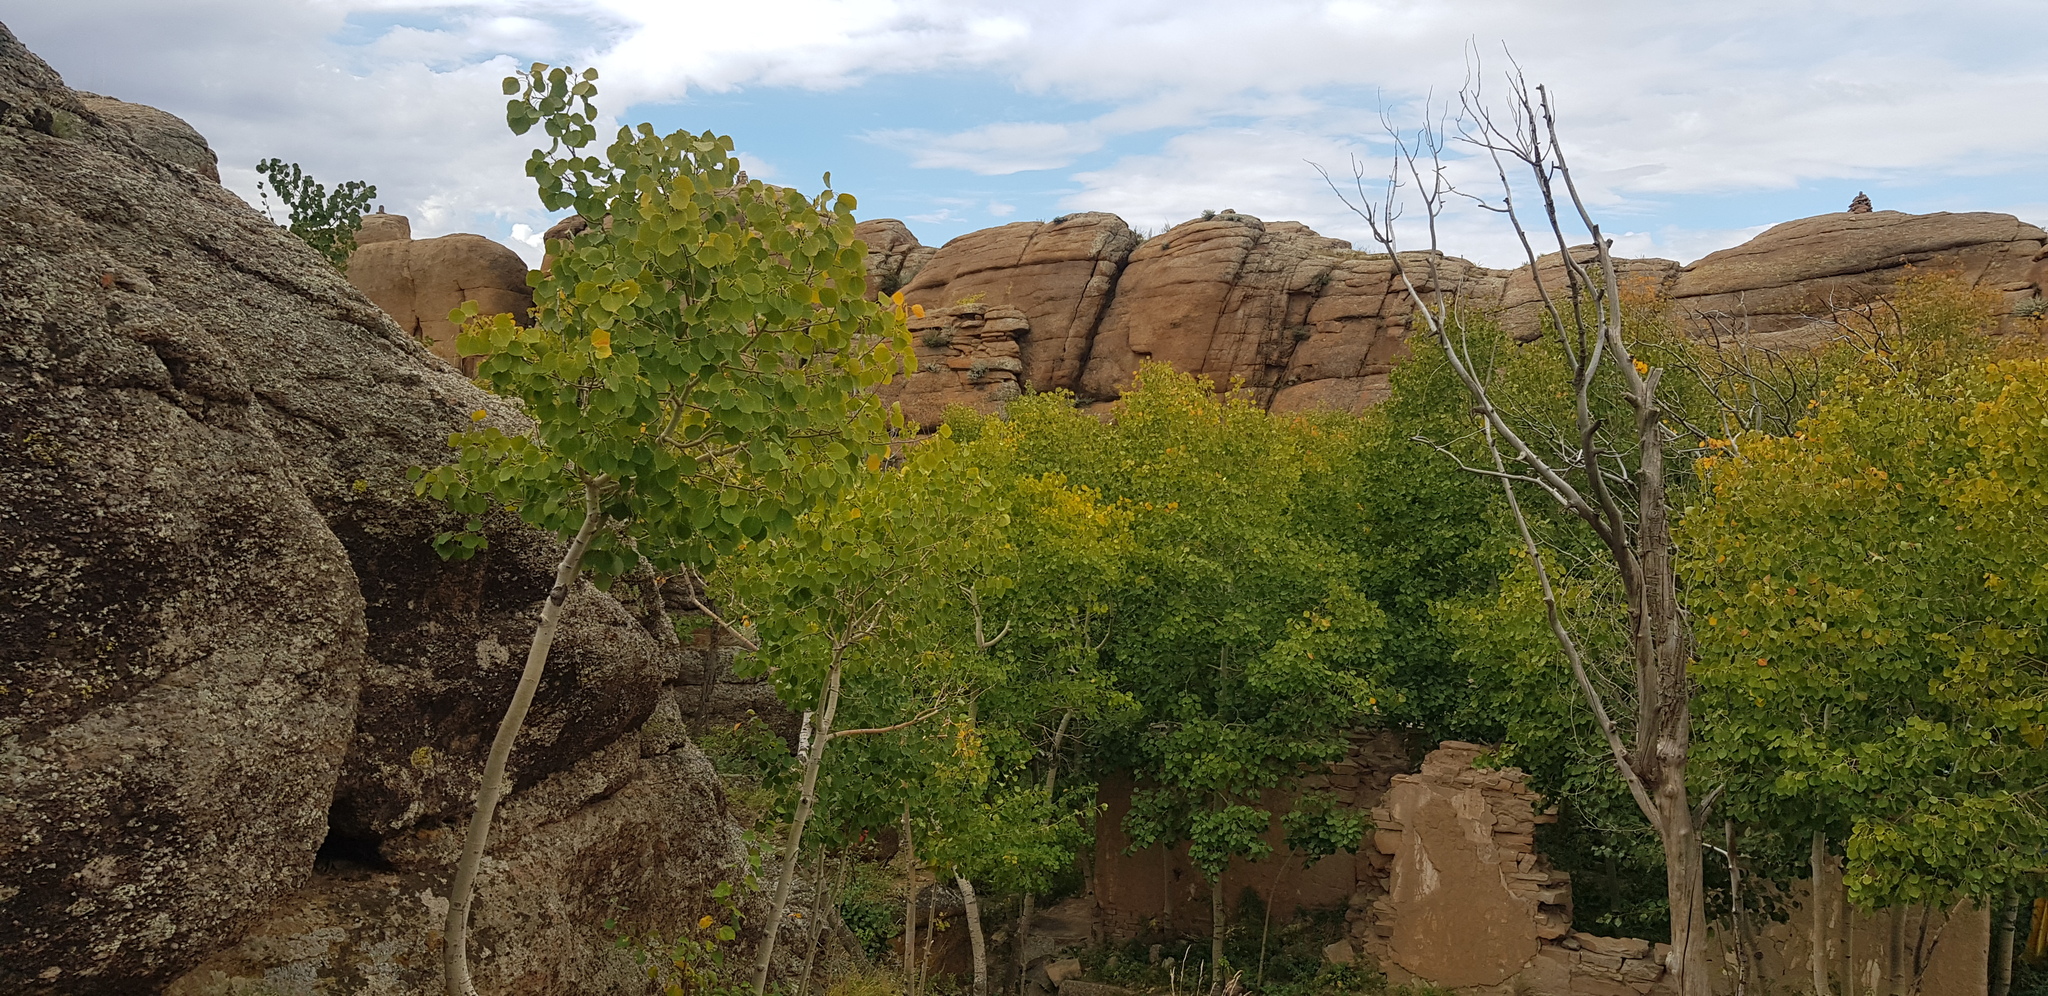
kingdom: Plantae
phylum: Tracheophyta
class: Magnoliopsida
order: Malpighiales
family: Salicaceae
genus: Populus
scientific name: Populus tremula
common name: European aspen
